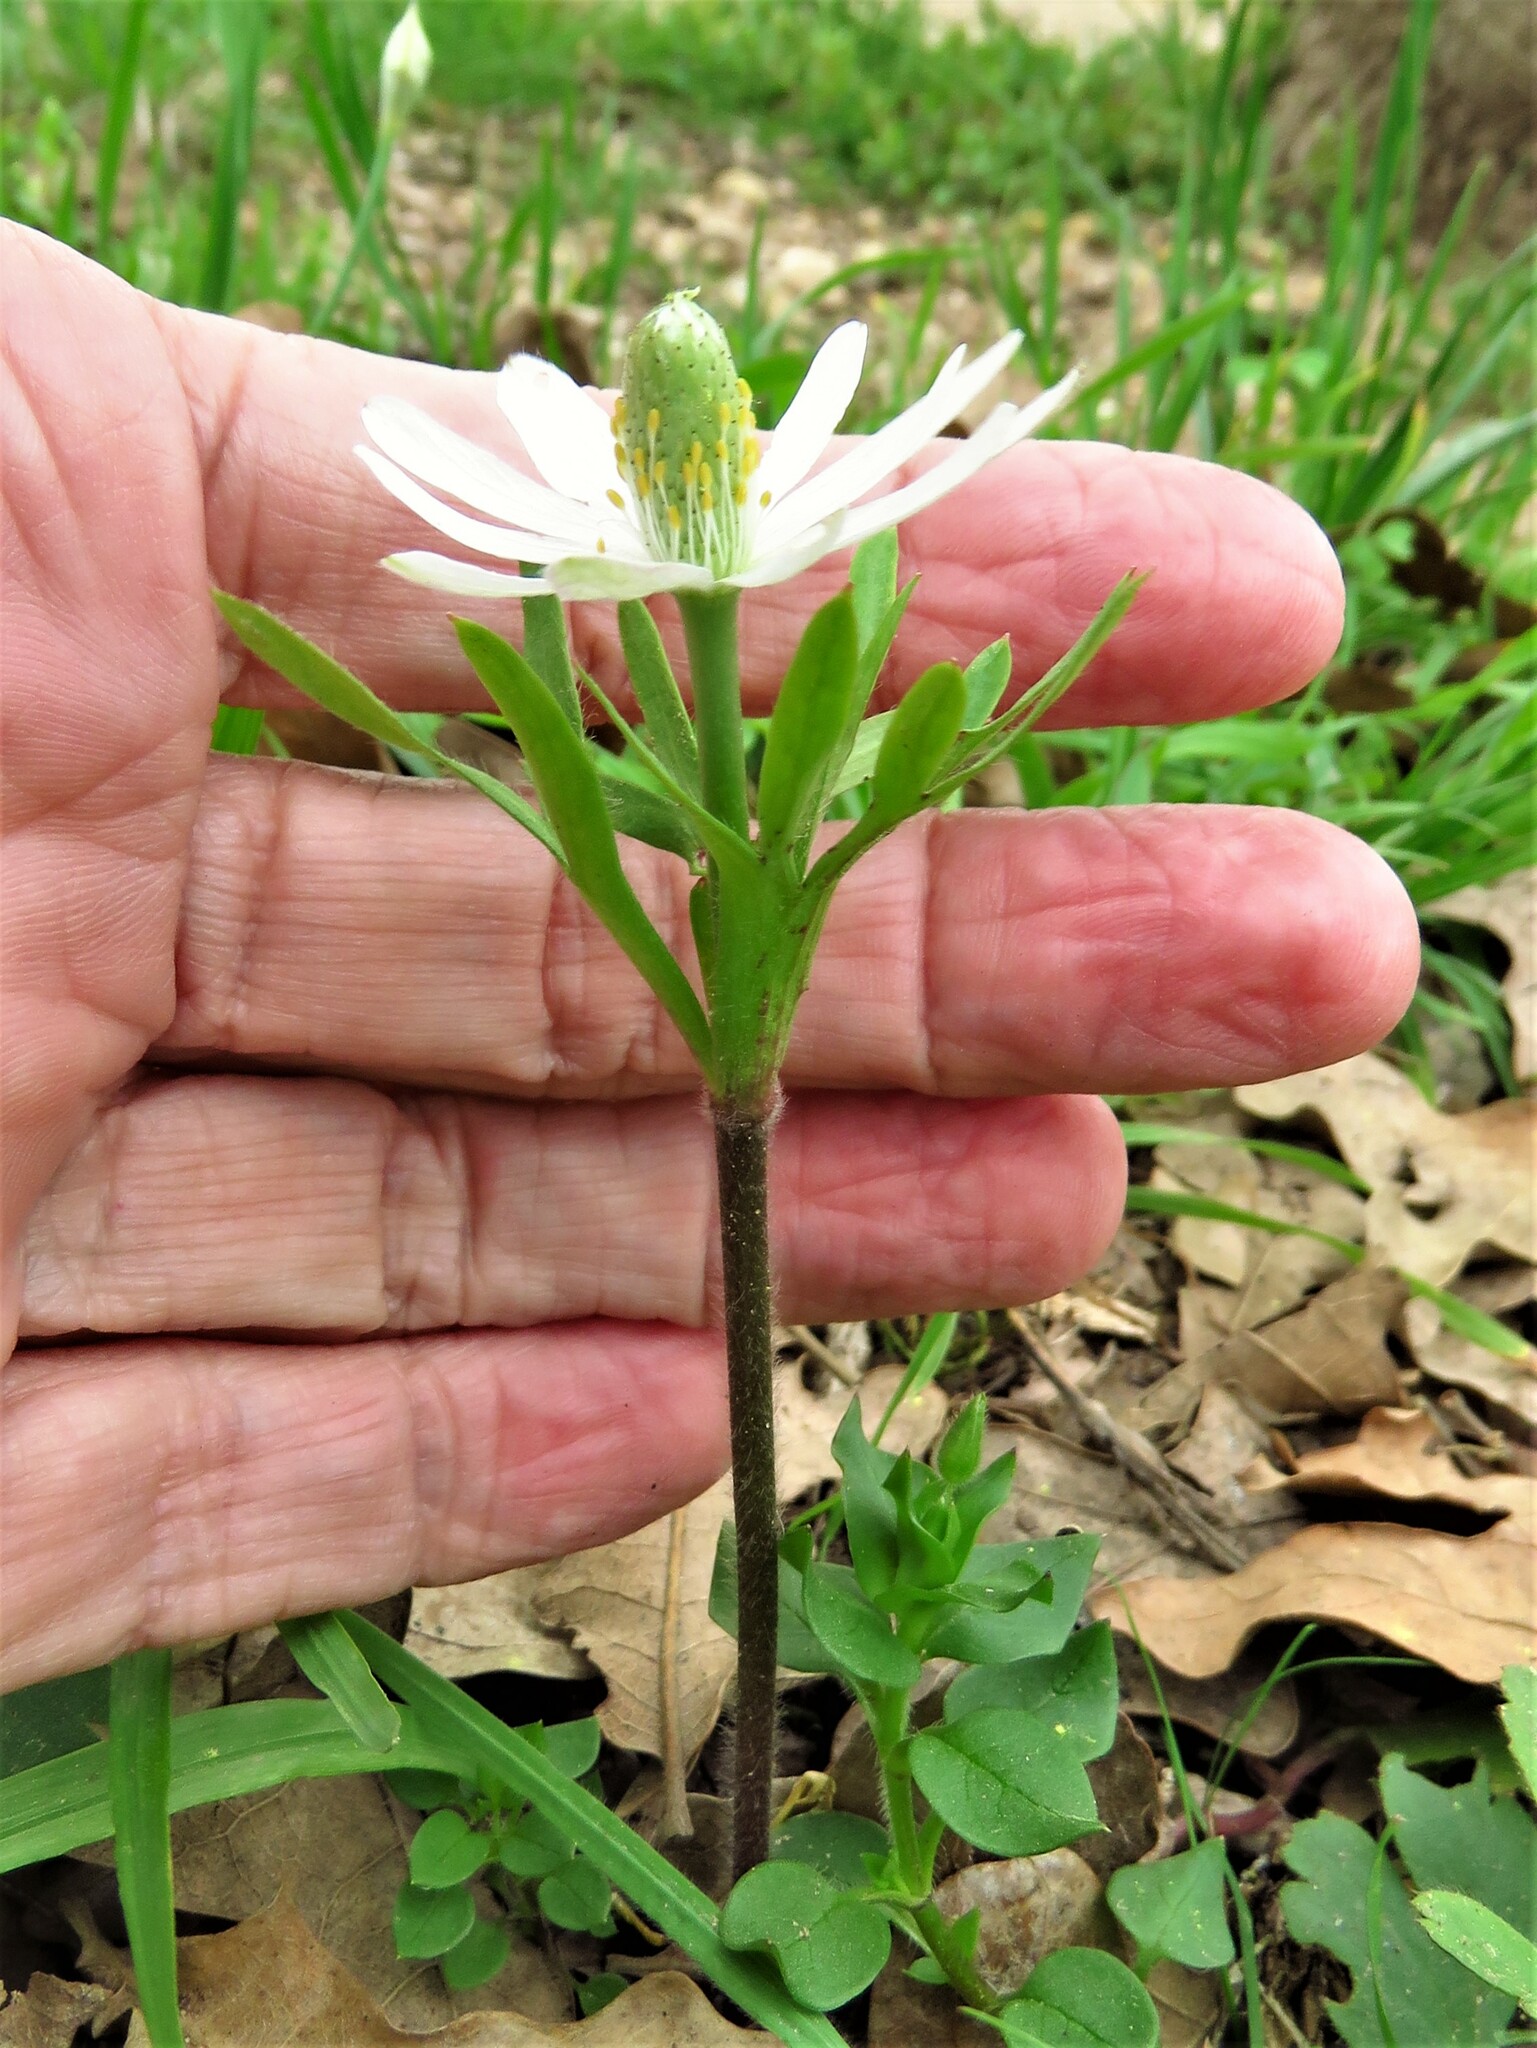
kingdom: Plantae
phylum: Tracheophyta
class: Magnoliopsida
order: Ranunculales
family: Ranunculaceae
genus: Anemone
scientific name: Anemone berlandieri
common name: Ten-petal anemone
